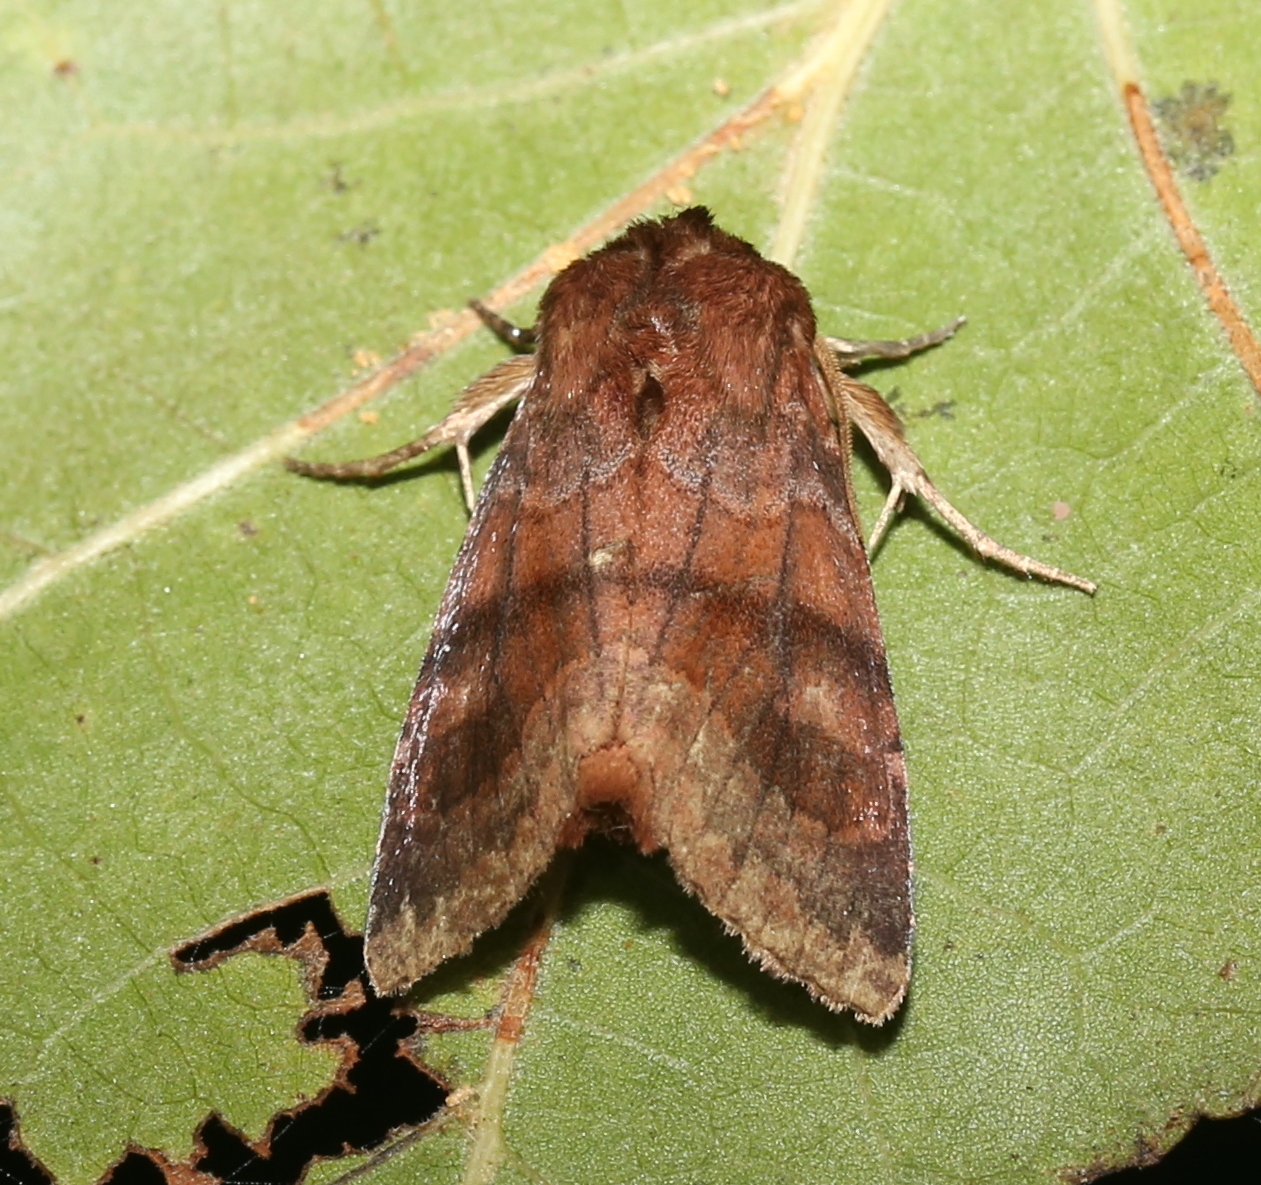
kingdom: Animalia
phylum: Arthropoda
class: Insecta
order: Lepidoptera
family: Noctuidae
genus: Nephelodes
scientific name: Nephelodes minians
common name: Bronzed cutworm
